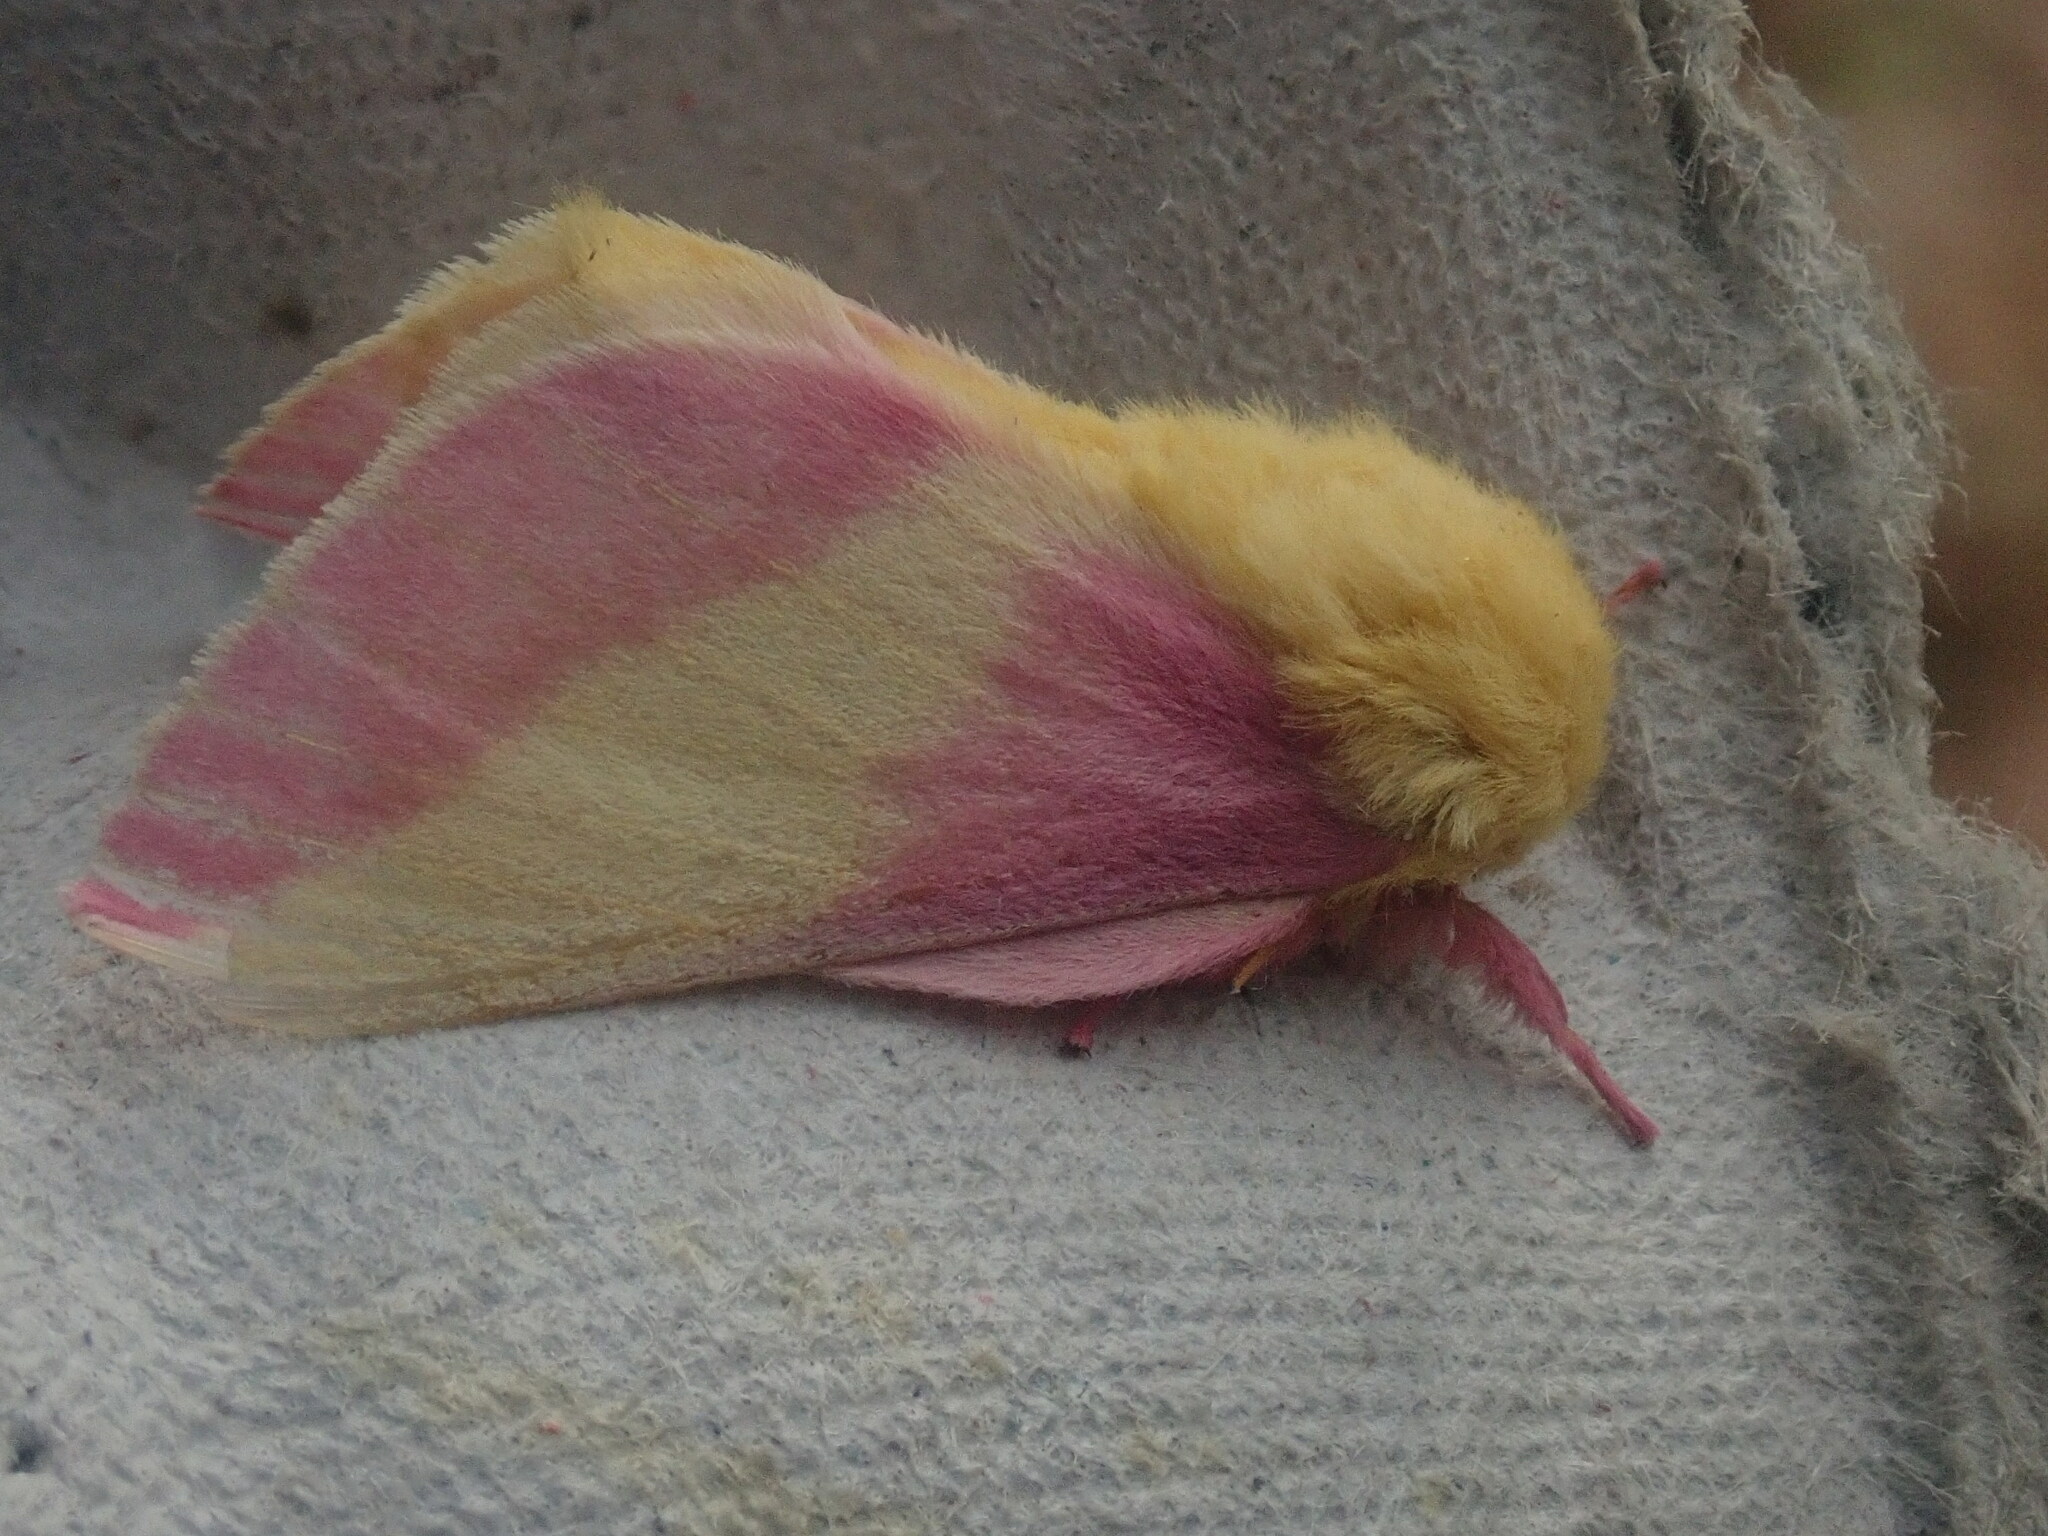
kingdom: Animalia
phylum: Arthropoda
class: Insecta
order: Lepidoptera
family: Saturniidae
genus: Dryocampa
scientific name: Dryocampa rubicunda
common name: Rosy maple moth
